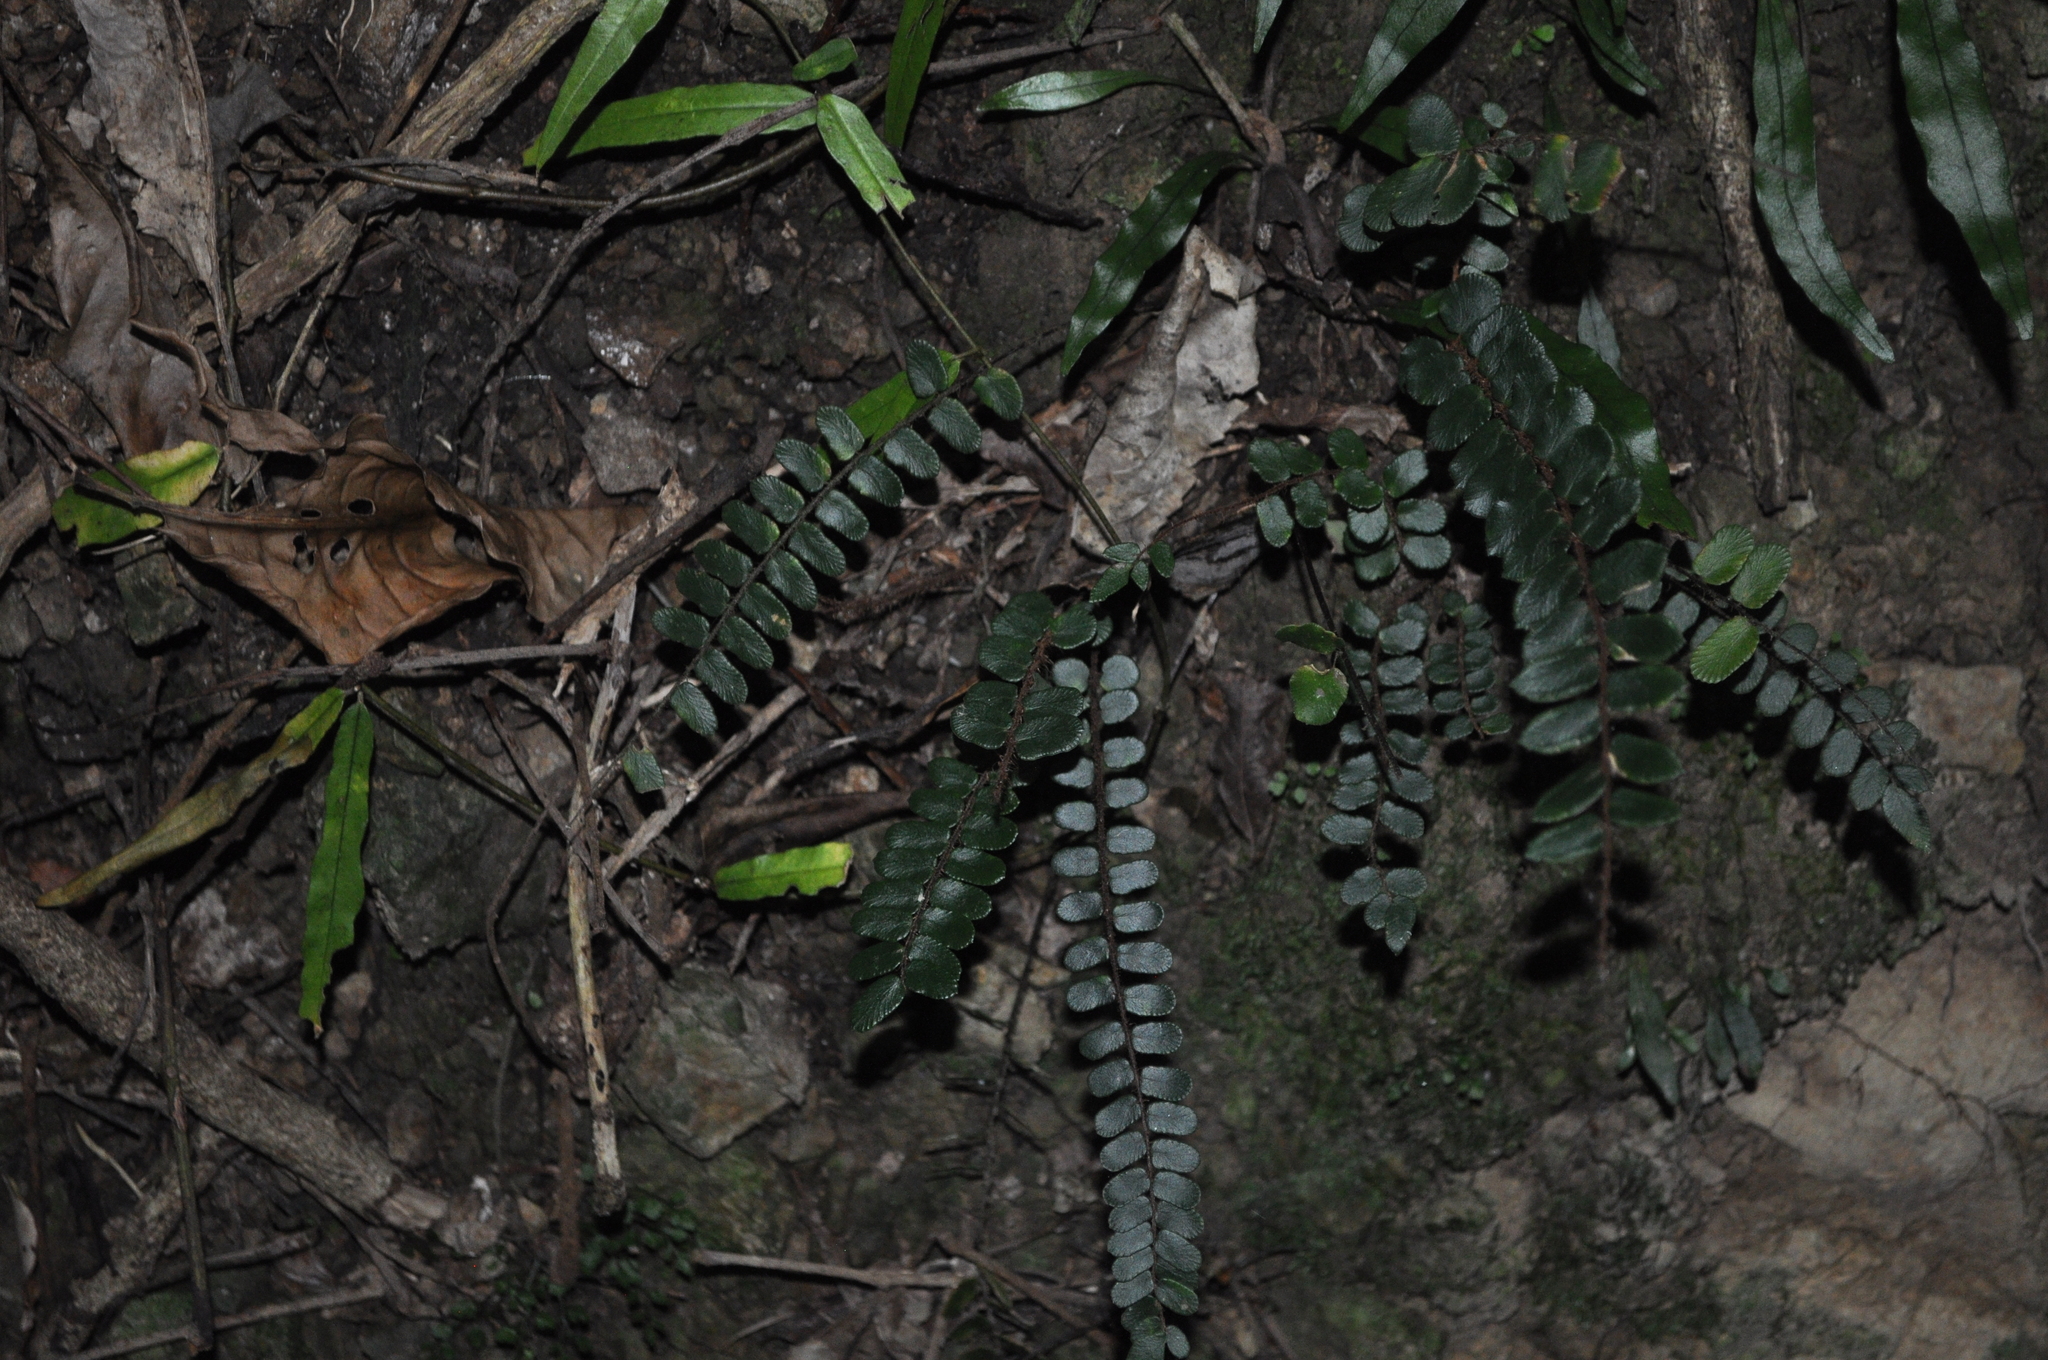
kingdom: Plantae
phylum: Tracheophyta
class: Polypodiopsida
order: Polypodiales
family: Pteridaceae
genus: Pellaea
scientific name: Pellaea rotundifolia
